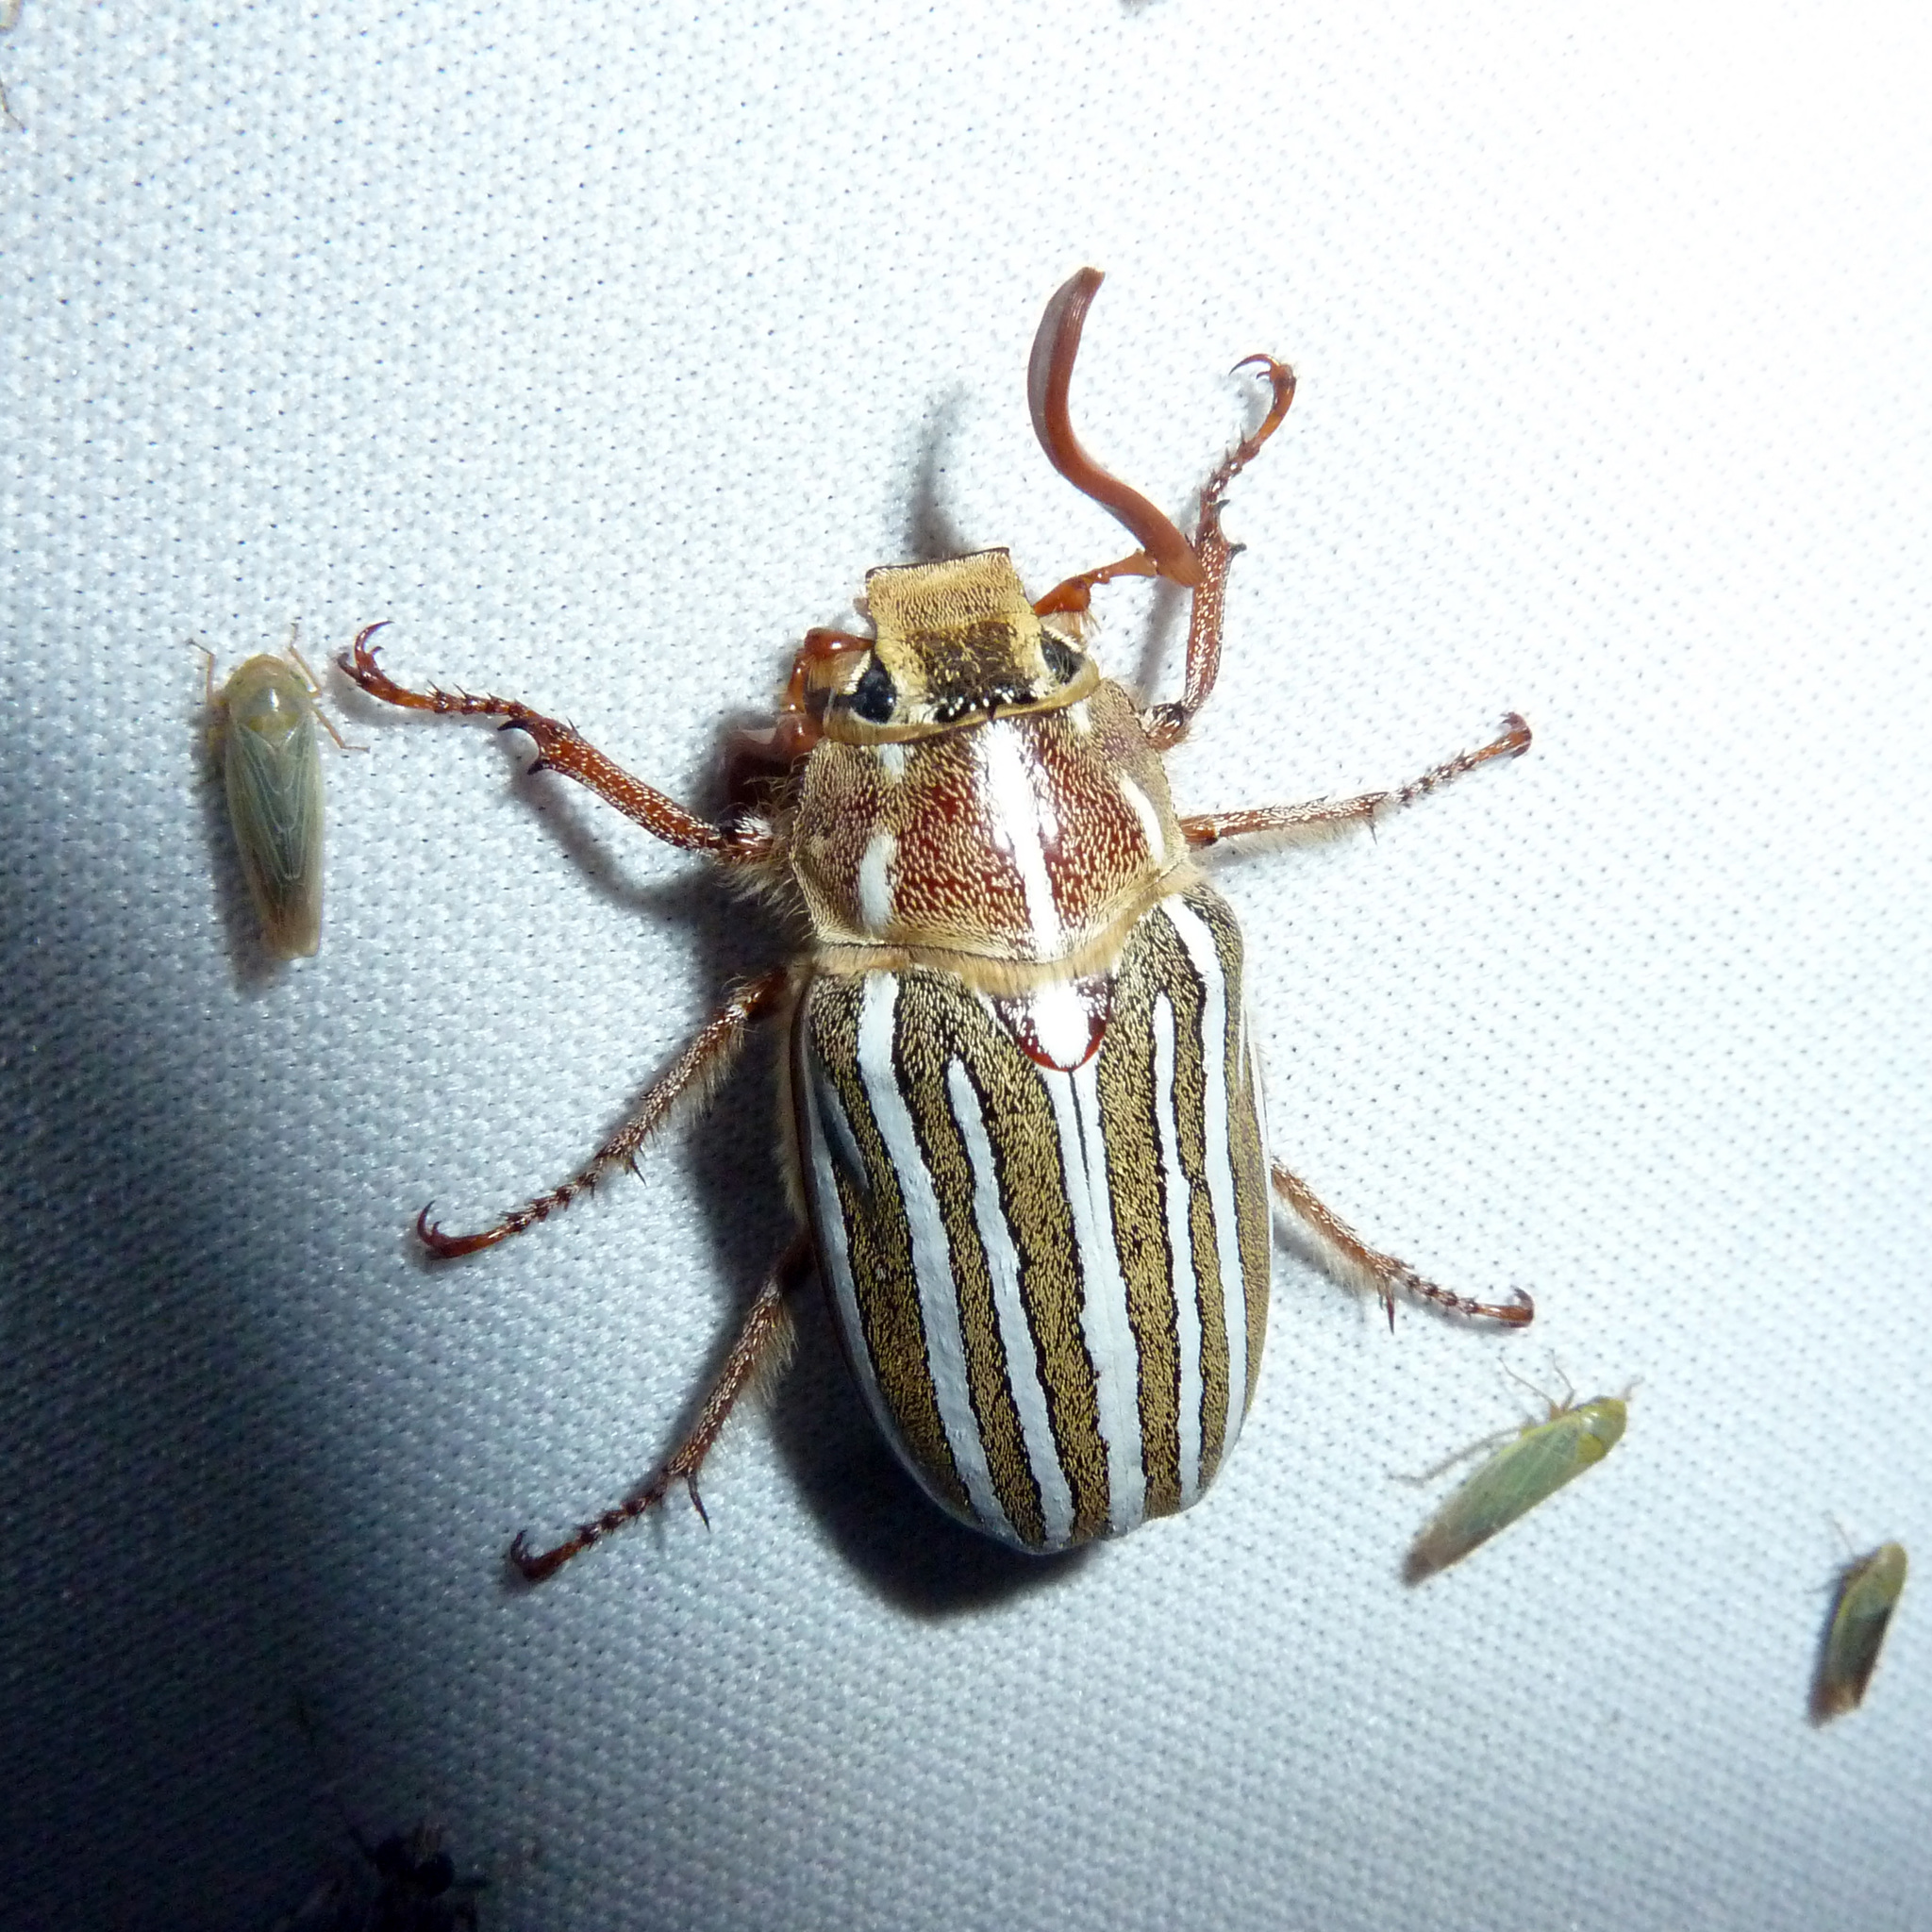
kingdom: Animalia
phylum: Arthropoda
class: Insecta
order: Coleoptera
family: Scarabaeidae
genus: Polyphylla
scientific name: Polyphylla decemlineata
